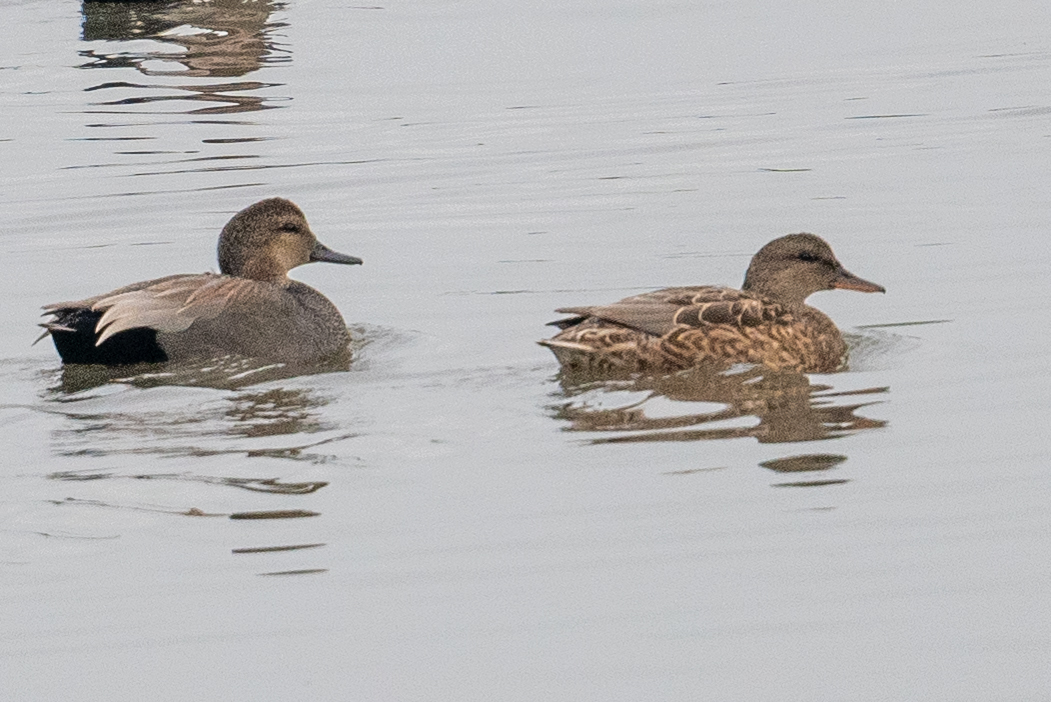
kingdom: Animalia
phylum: Chordata
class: Aves
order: Anseriformes
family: Anatidae
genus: Mareca
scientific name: Mareca strepera
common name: Gadwall
